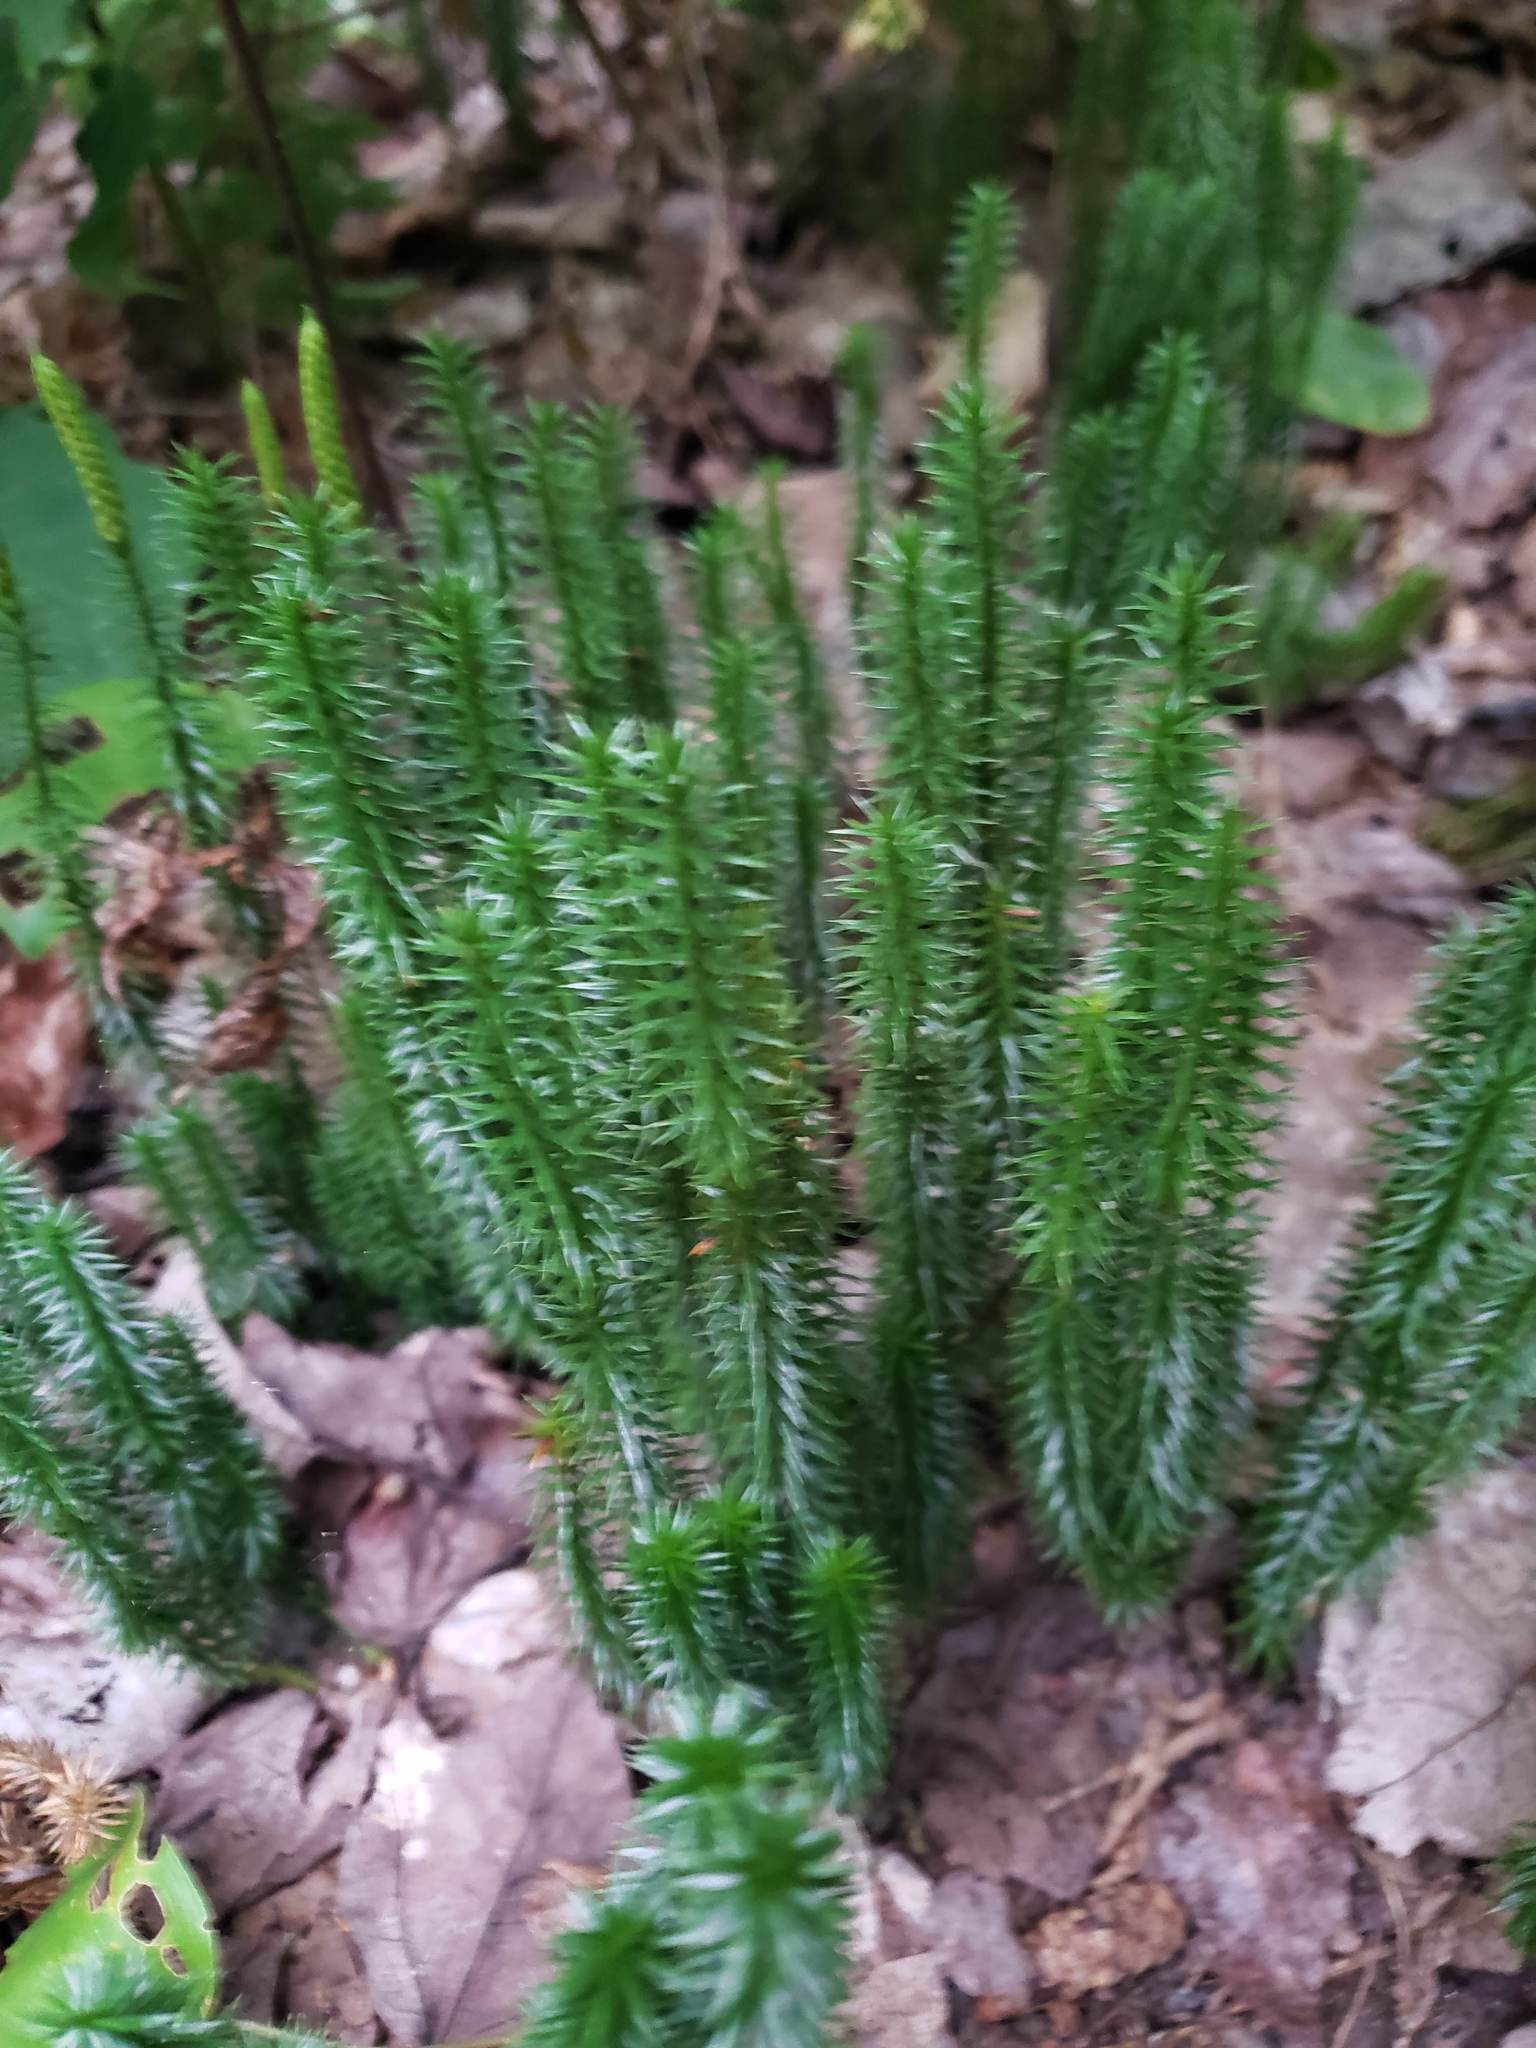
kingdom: Plantae
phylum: Tracheophyta
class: Lycopodiopsida
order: Lycopodiales
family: Lycopodiaceae
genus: Spinulum
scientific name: Spinulum annotinum
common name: Interrupted club-moss
